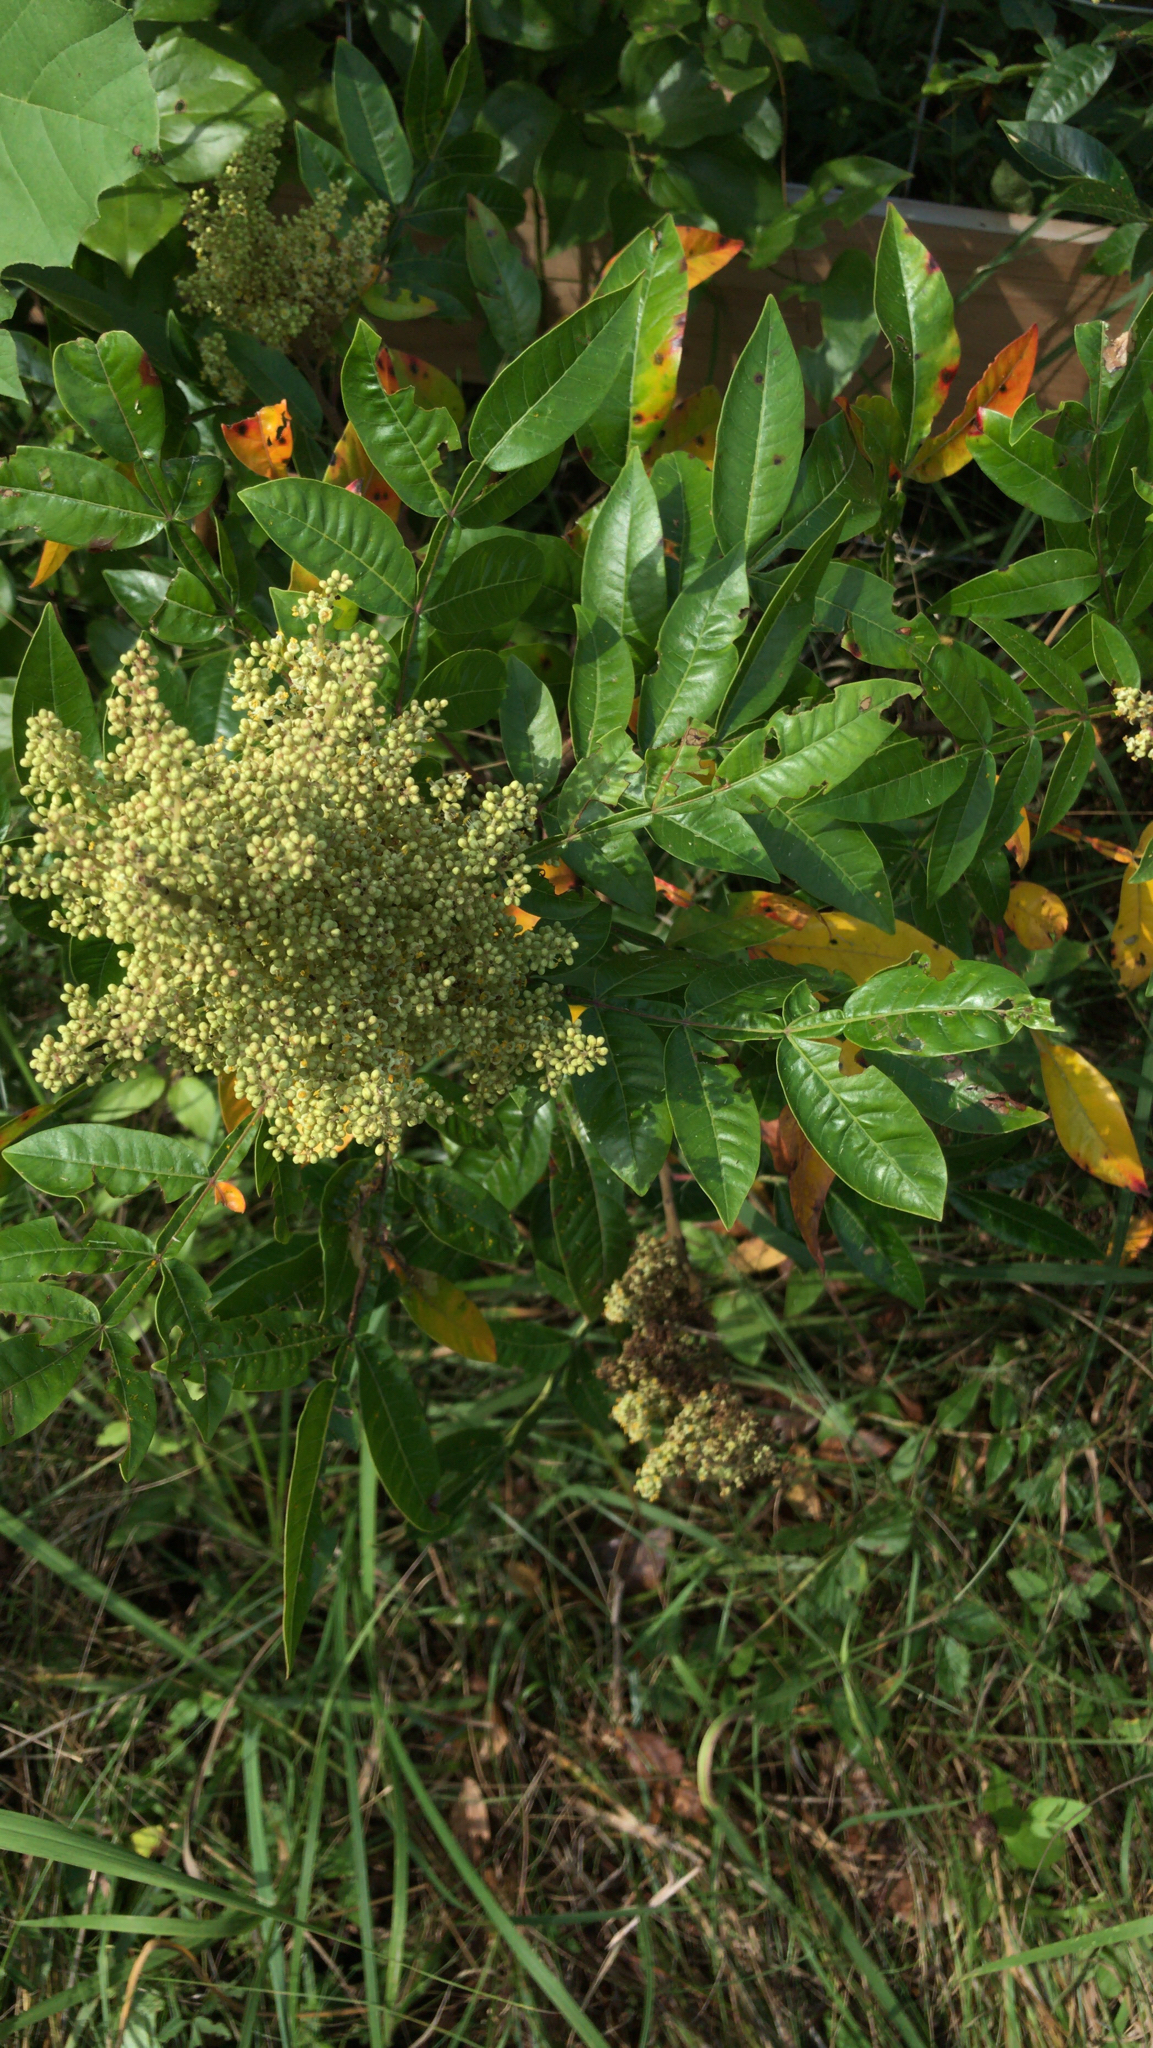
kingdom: Plantae
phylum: Tracheophyta
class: Magnoliopsida
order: Sapindales
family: Anacardiaceae
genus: Rhus
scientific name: Rhus copallina
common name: Shining sumac
